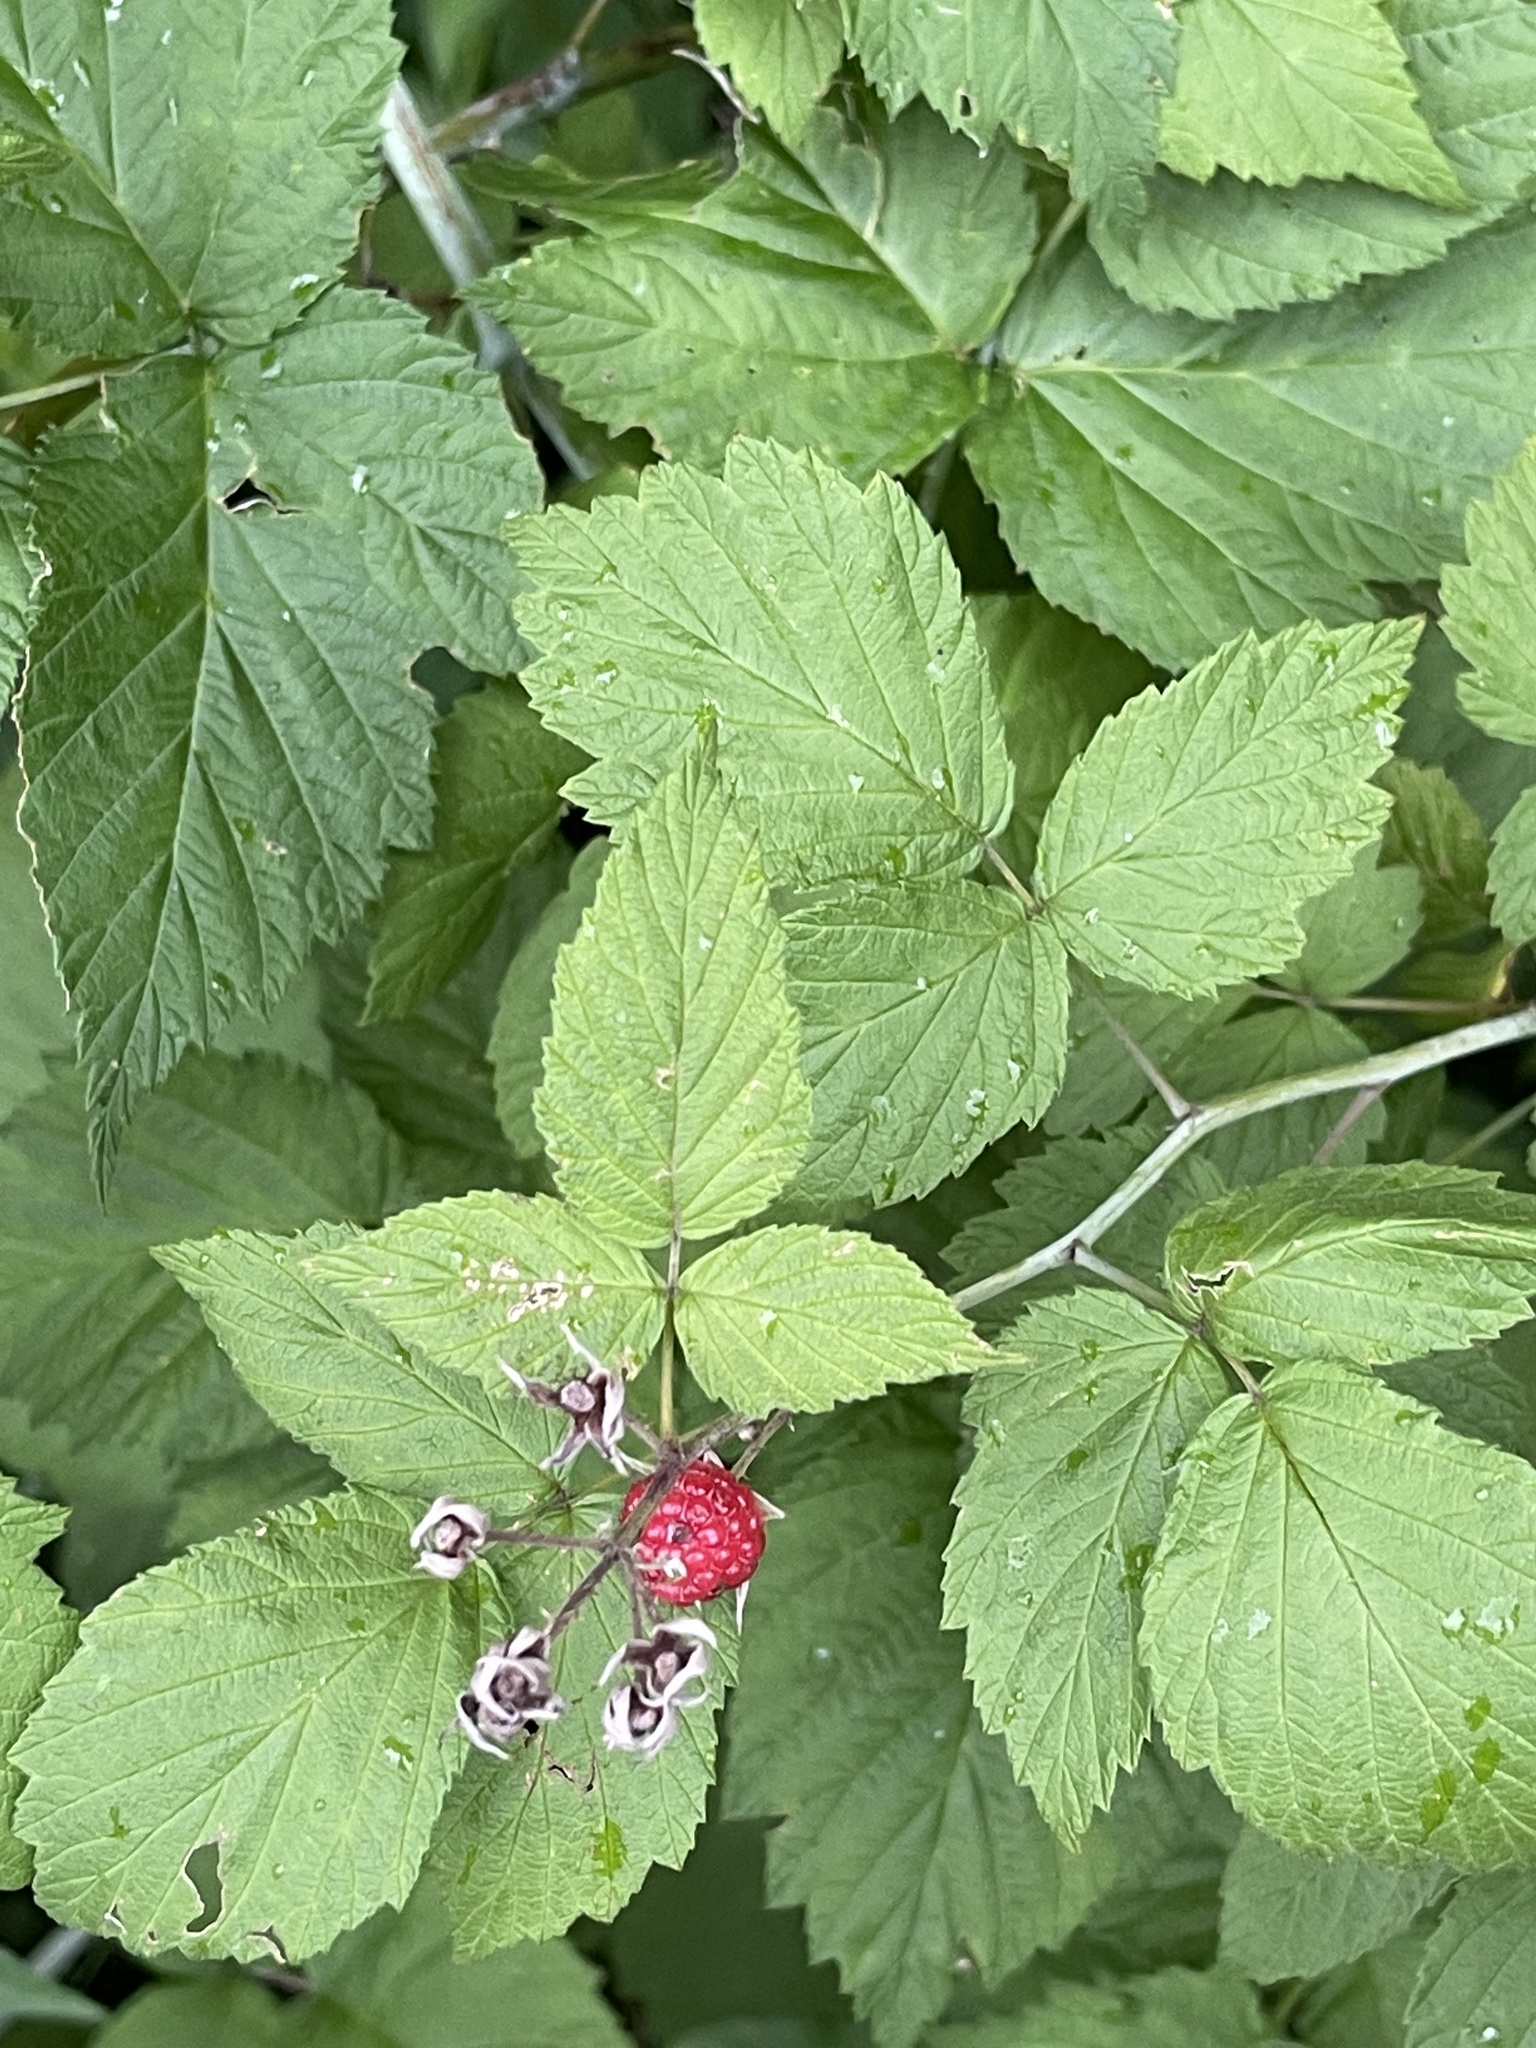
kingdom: Plantae
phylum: Tracheophyta
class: Magnoliopsida
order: Rosales
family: Rosaceae
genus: Rubus
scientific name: Rubus occidentalis
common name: Black raspberry
